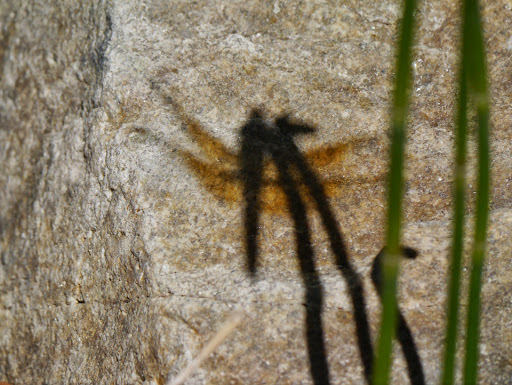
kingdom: Animalia
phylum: Arthropoda
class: Insecta
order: Odonata
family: Libellulidae
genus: Libellula
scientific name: Libellula saturata
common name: Flame skimmer
